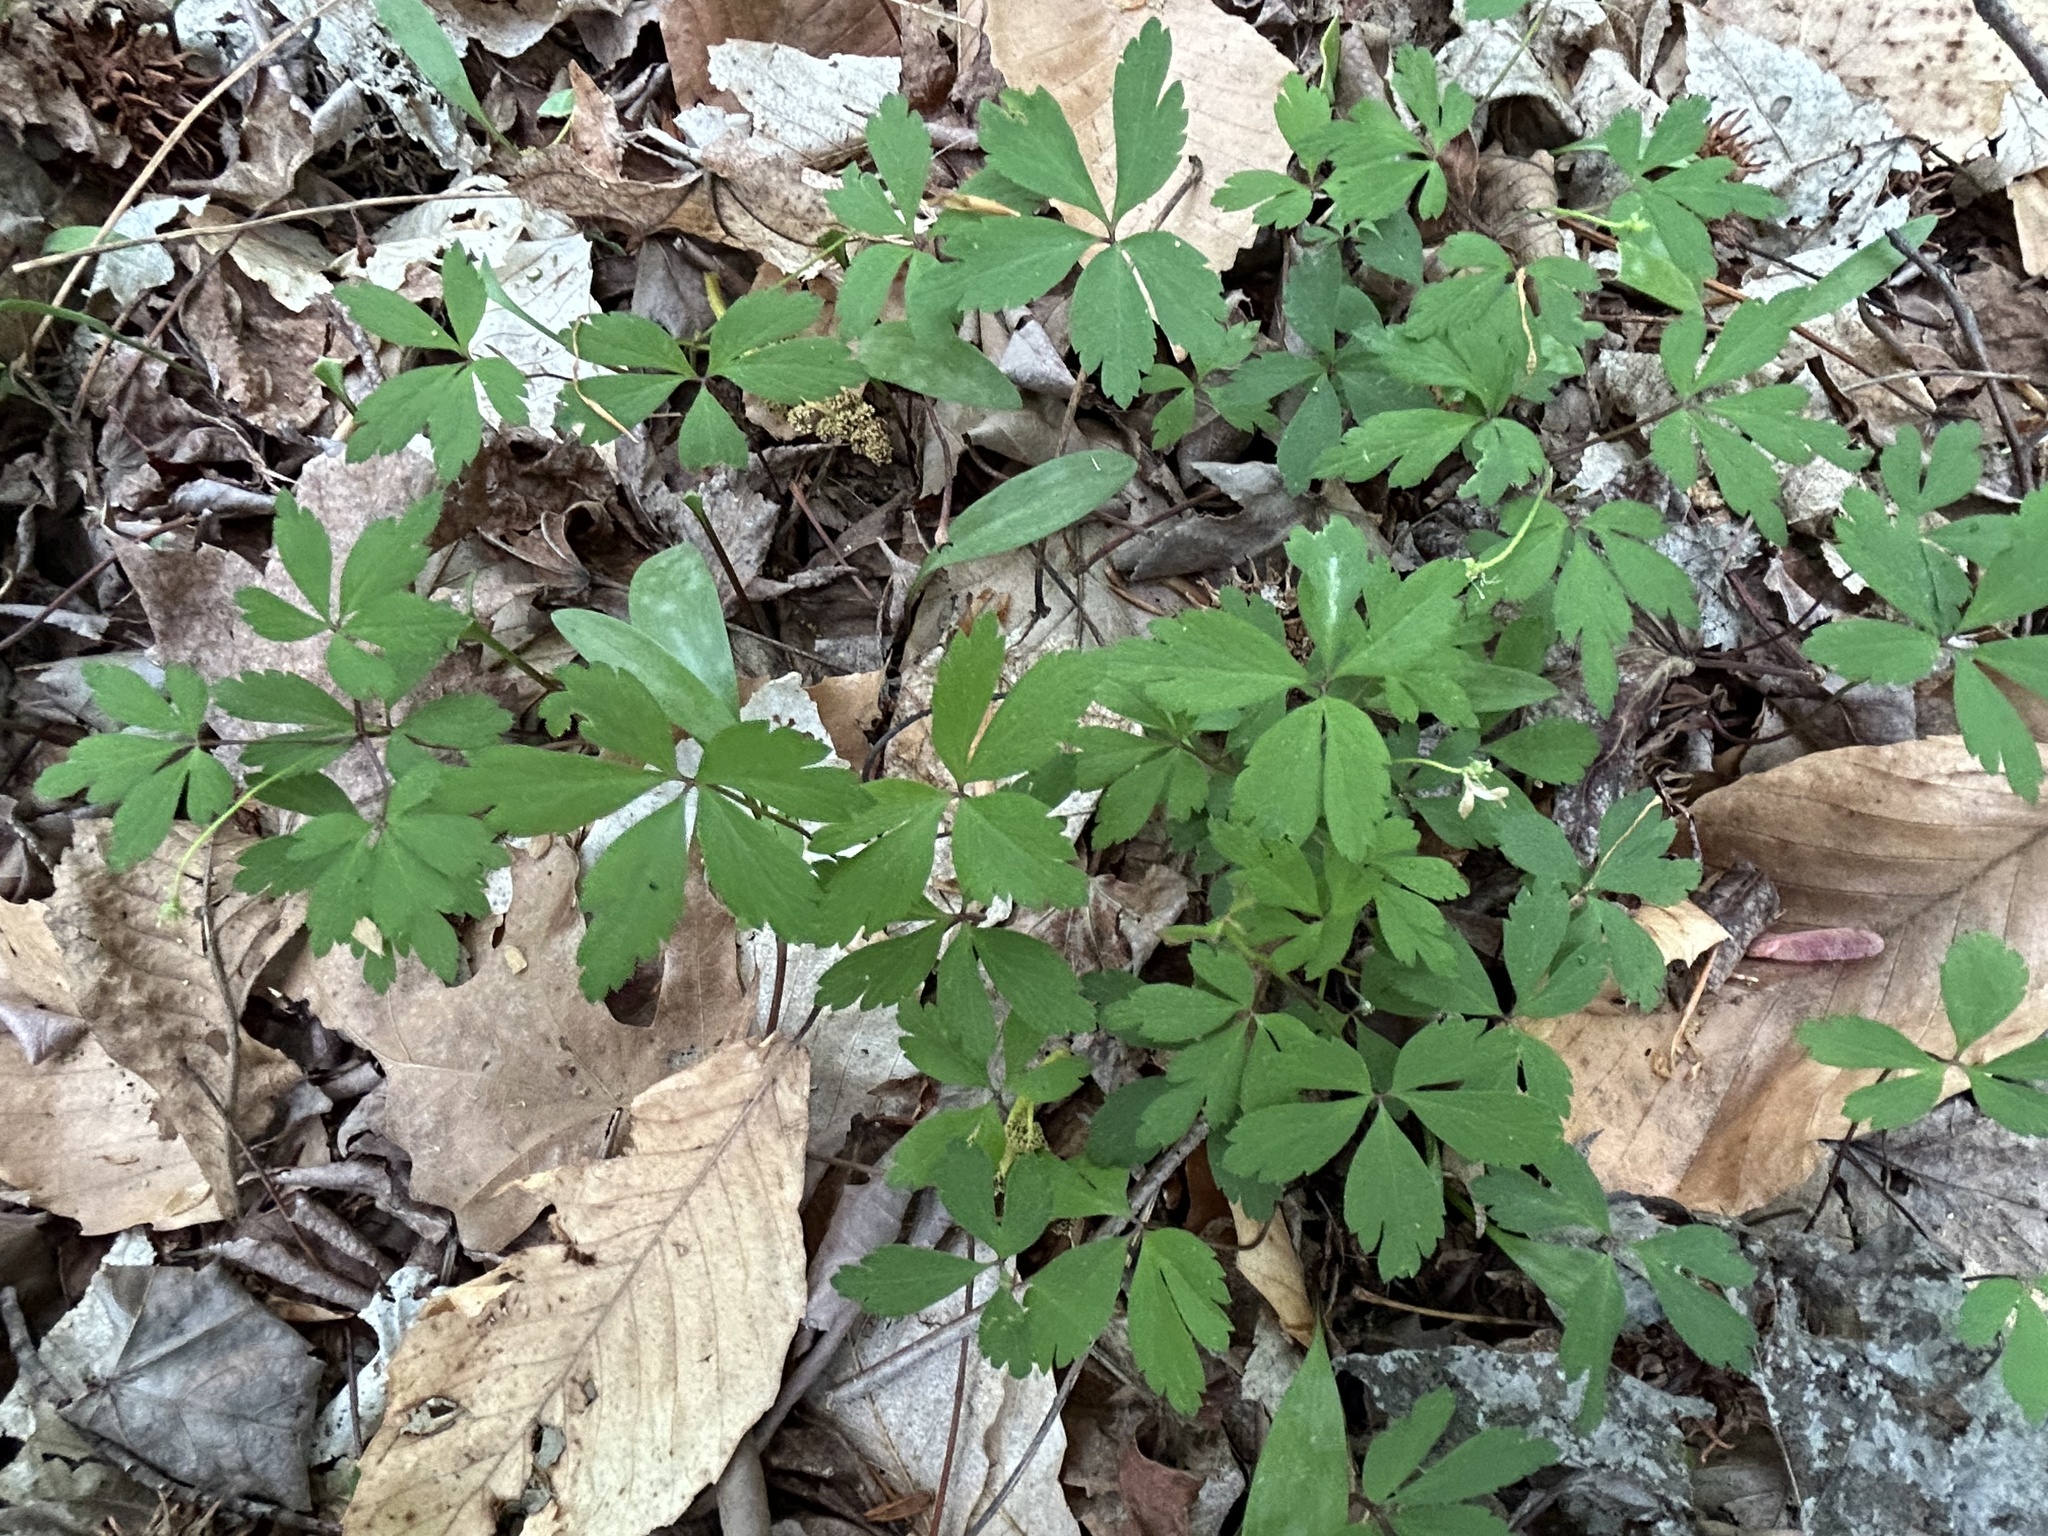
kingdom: Plantae
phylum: Tracheophyta
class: Magnoliopsida
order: Ranunculales
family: Ranunculaceae
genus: Anemone
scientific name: Anemone quinquefolia
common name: Wood anemone
